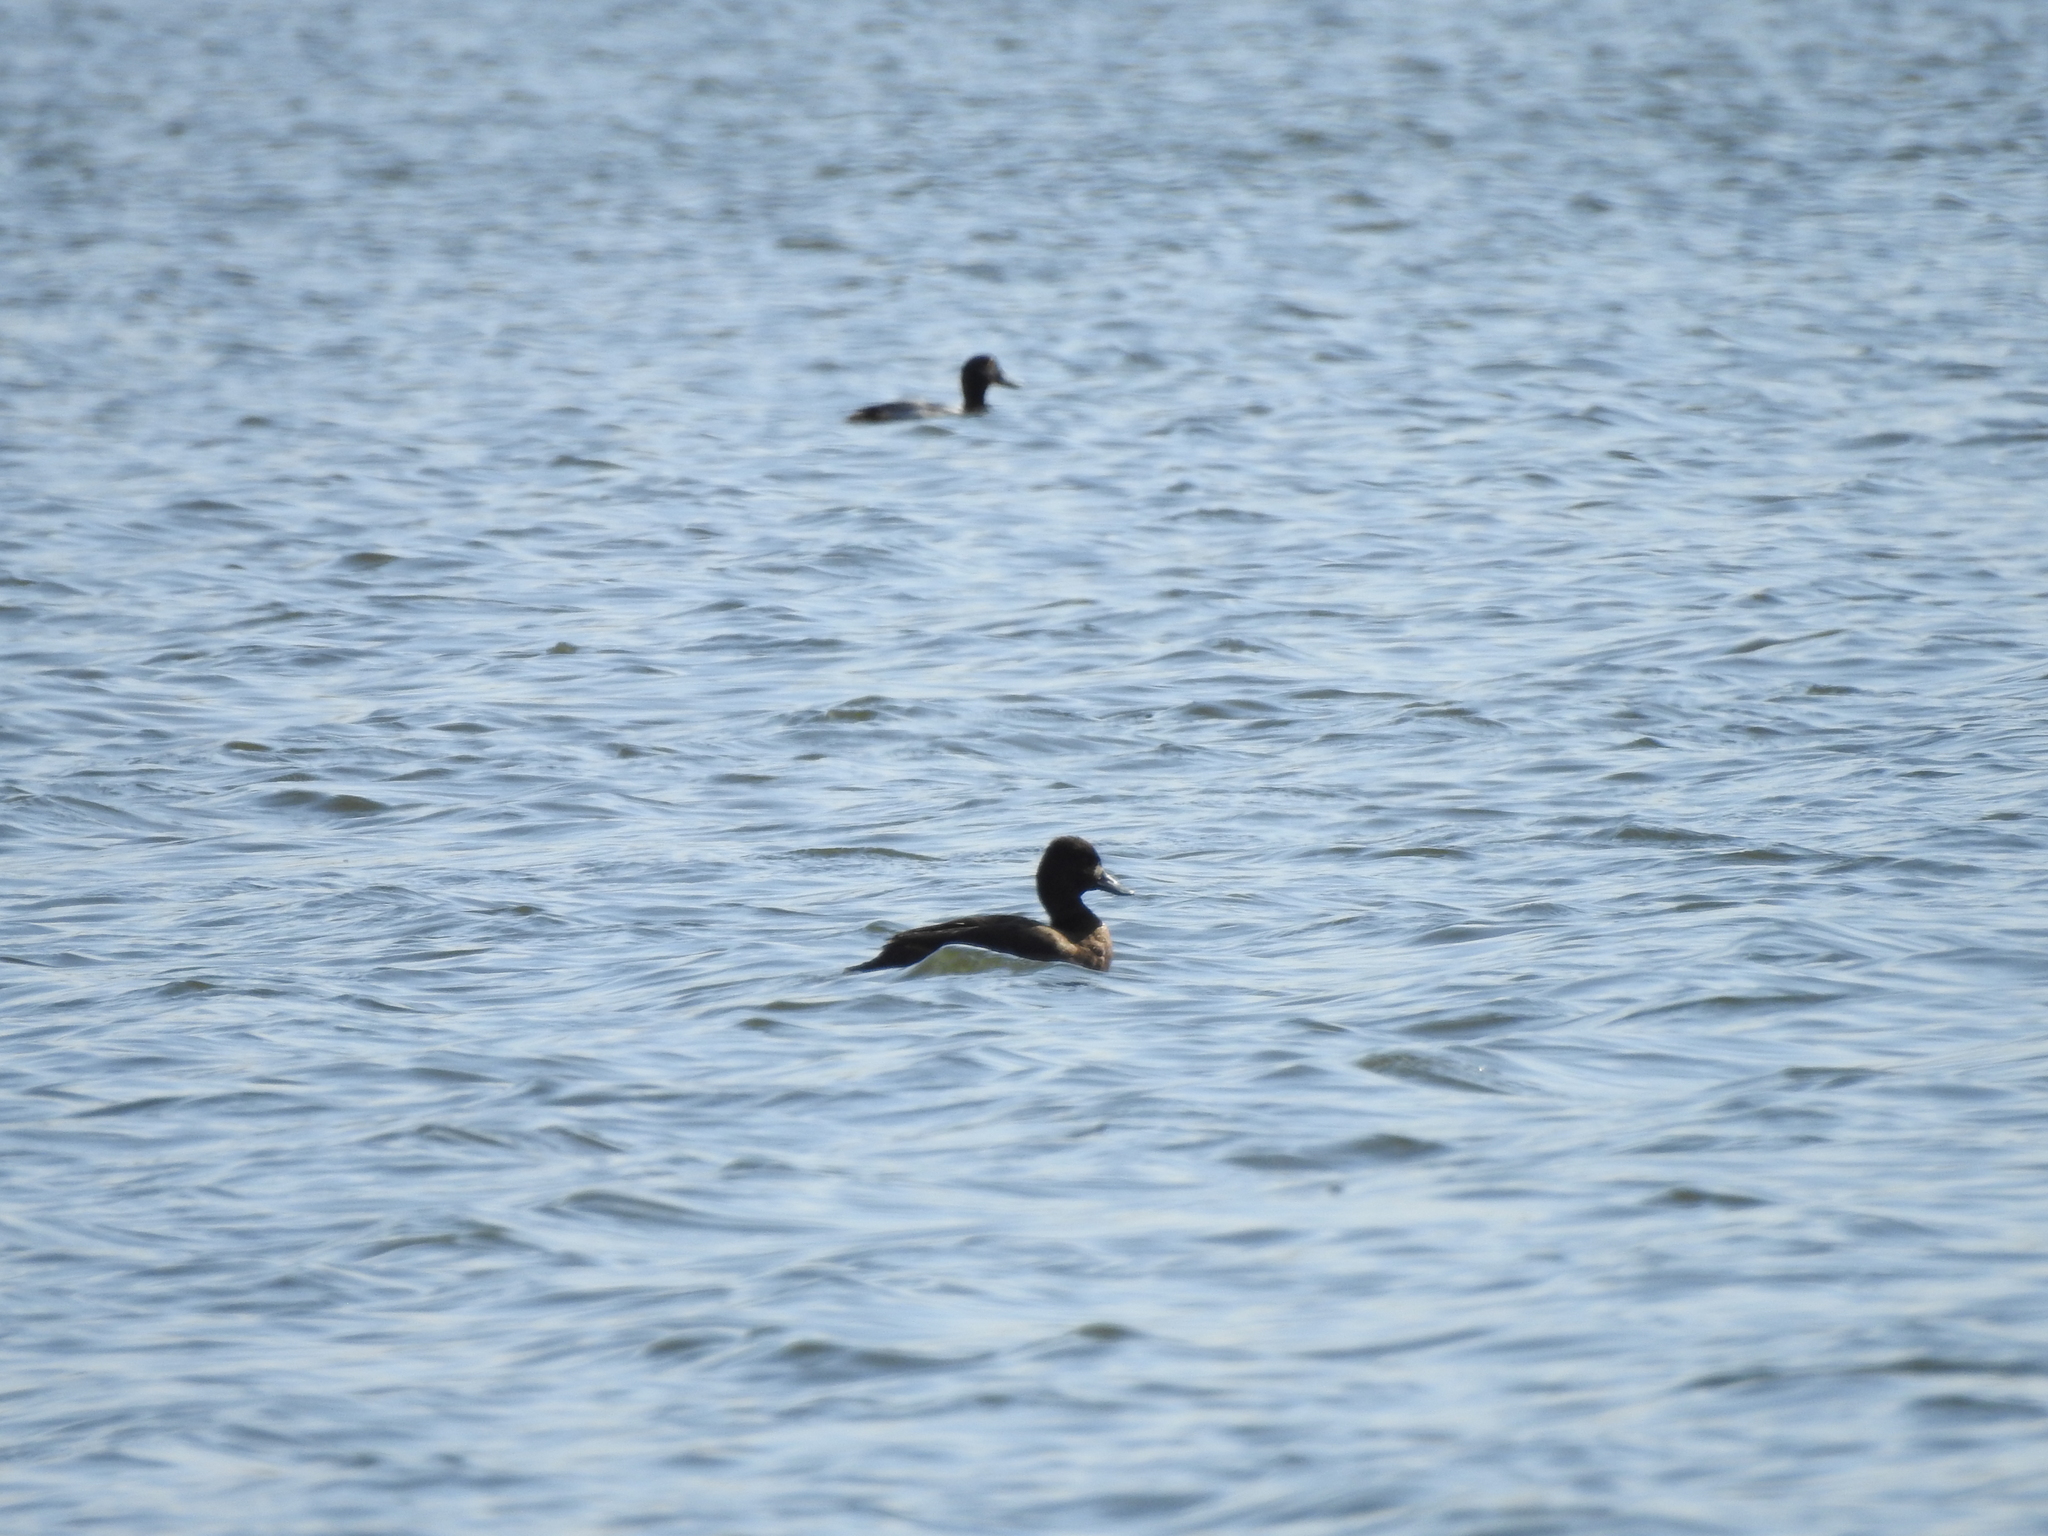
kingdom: Animalia
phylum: Chordata
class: Aves
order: Anseriformes
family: Anatidae
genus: Aythya
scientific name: Aythya affinis
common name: Lesser scaup
